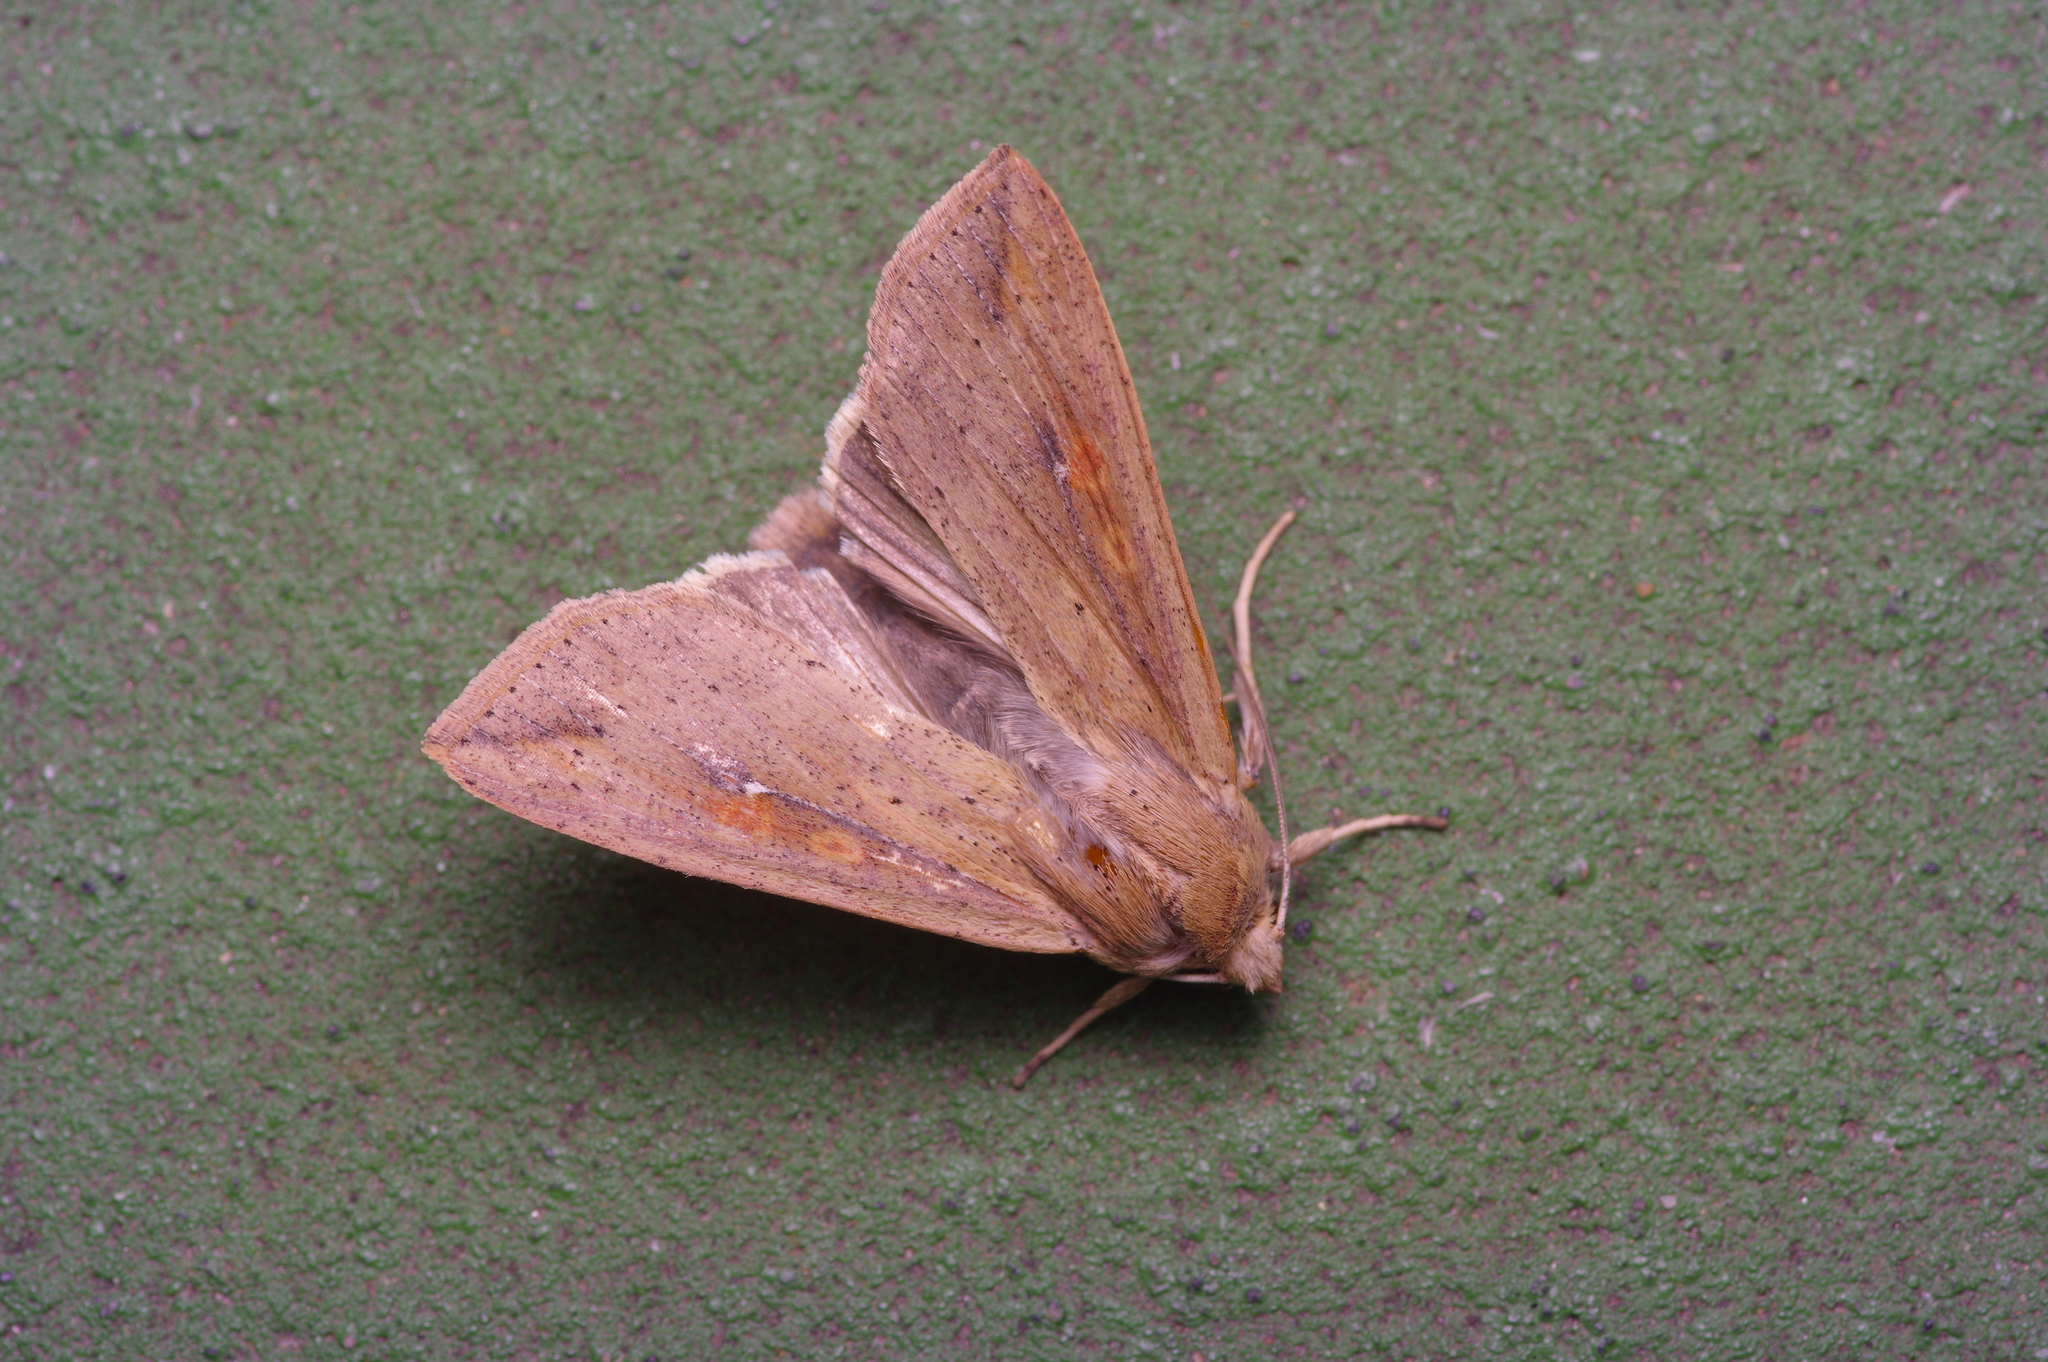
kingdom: Animalia
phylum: Arthropoda
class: Insecta
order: Lepidoptera
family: Noctuidae
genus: Mythimna
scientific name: Mythimna unipuncta
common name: White-speck
